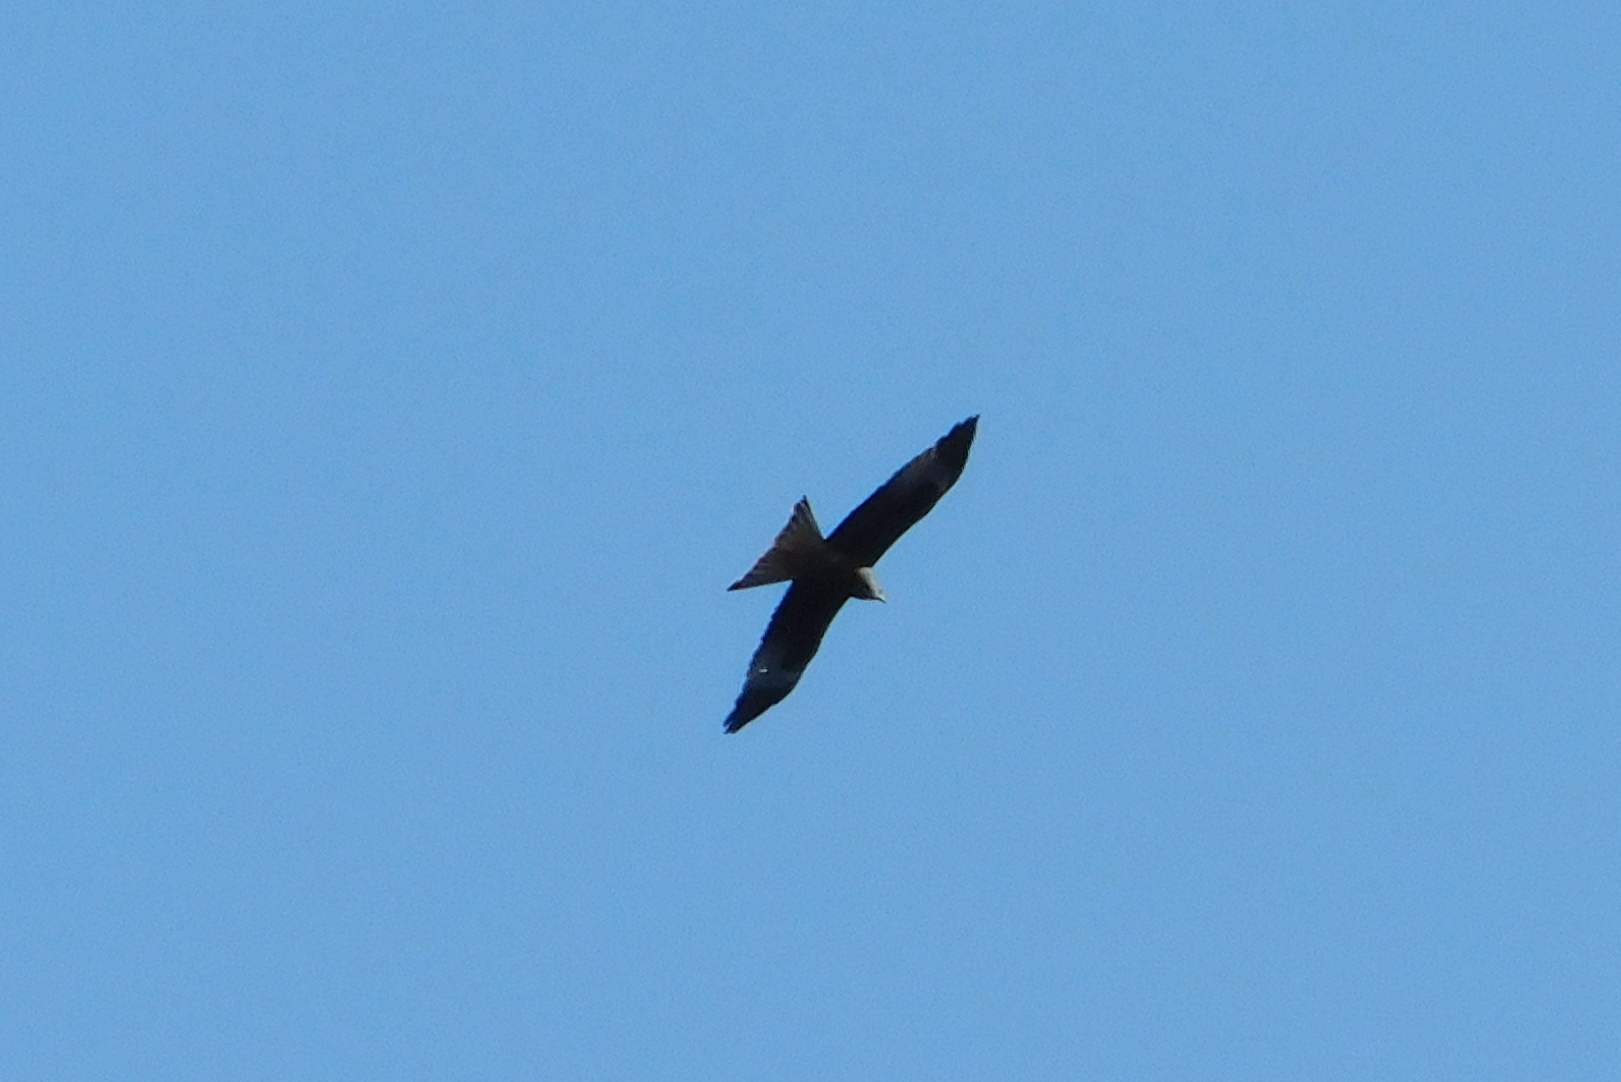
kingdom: Animalia
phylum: Chordata
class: Aves
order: Accipitriformes
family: Accipitridae
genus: Milvus
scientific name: Milvus migrans
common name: Black kite
